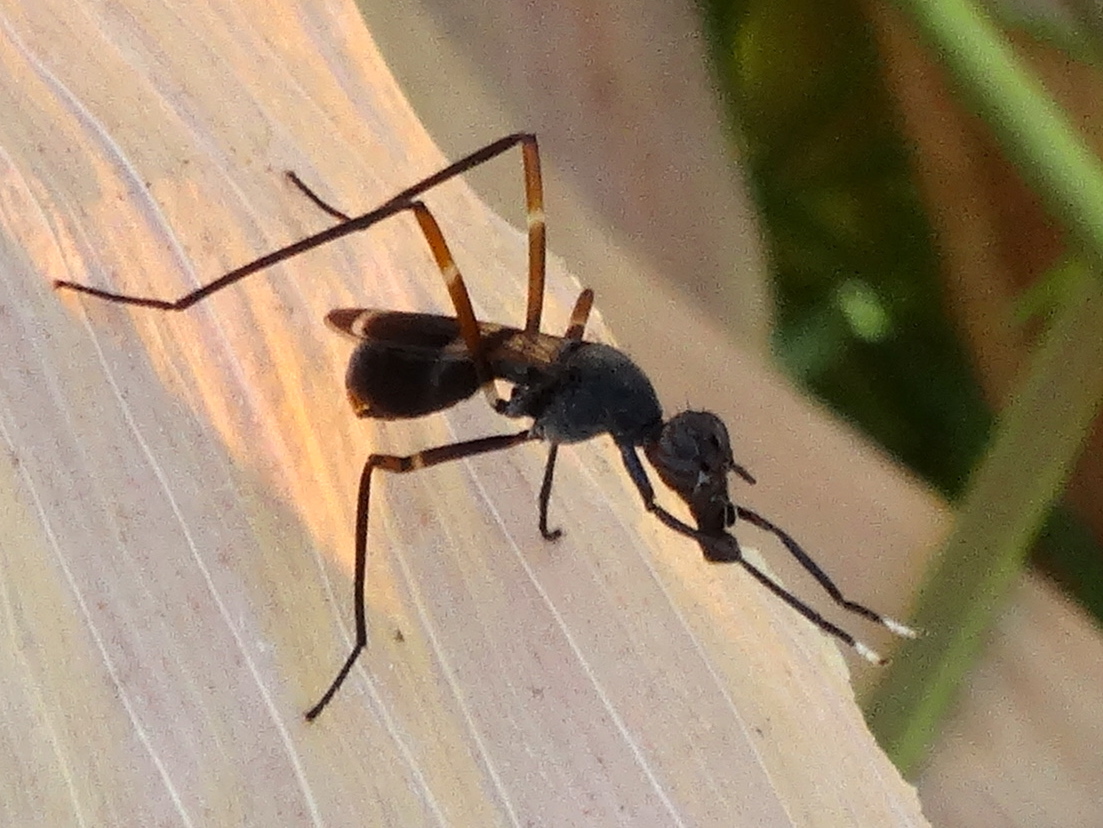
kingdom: Animalia
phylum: Arthropoda
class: Insecta
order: Diptera
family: Micropezidae
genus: Taeniaptera
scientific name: Taeniaptera lasciva
